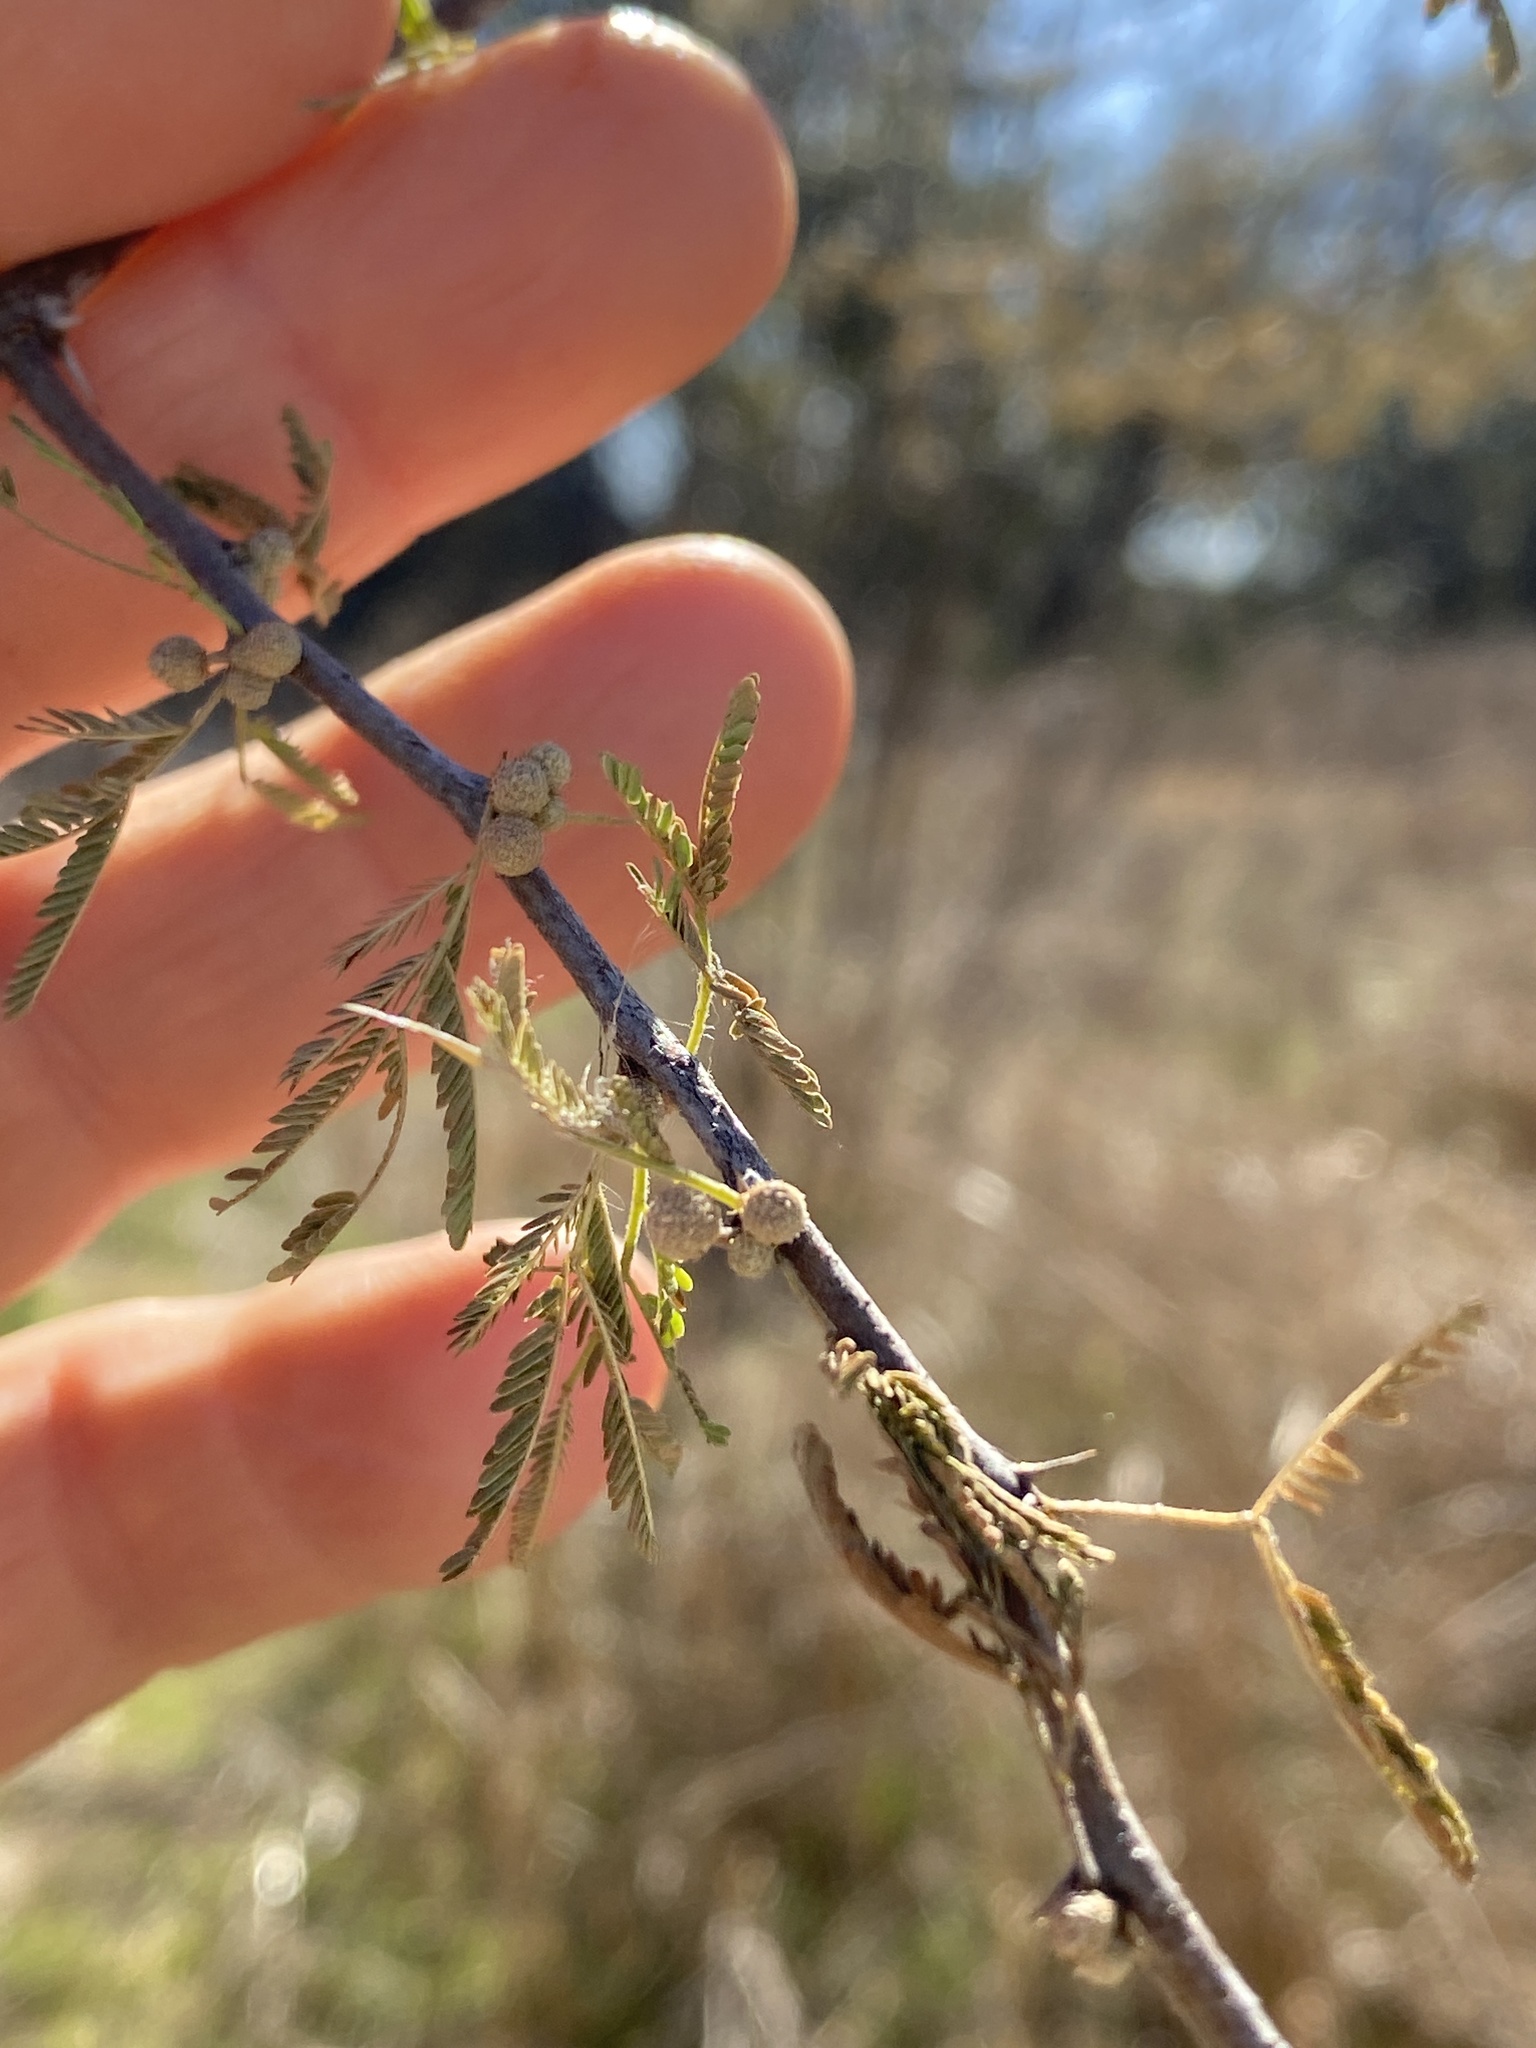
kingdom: Plantae
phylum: Tracheophyta
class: Magnoliopsida
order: Fabales
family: Fabaceae
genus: Vachellia
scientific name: Vachellia farnesiana
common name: Sweet acacia
